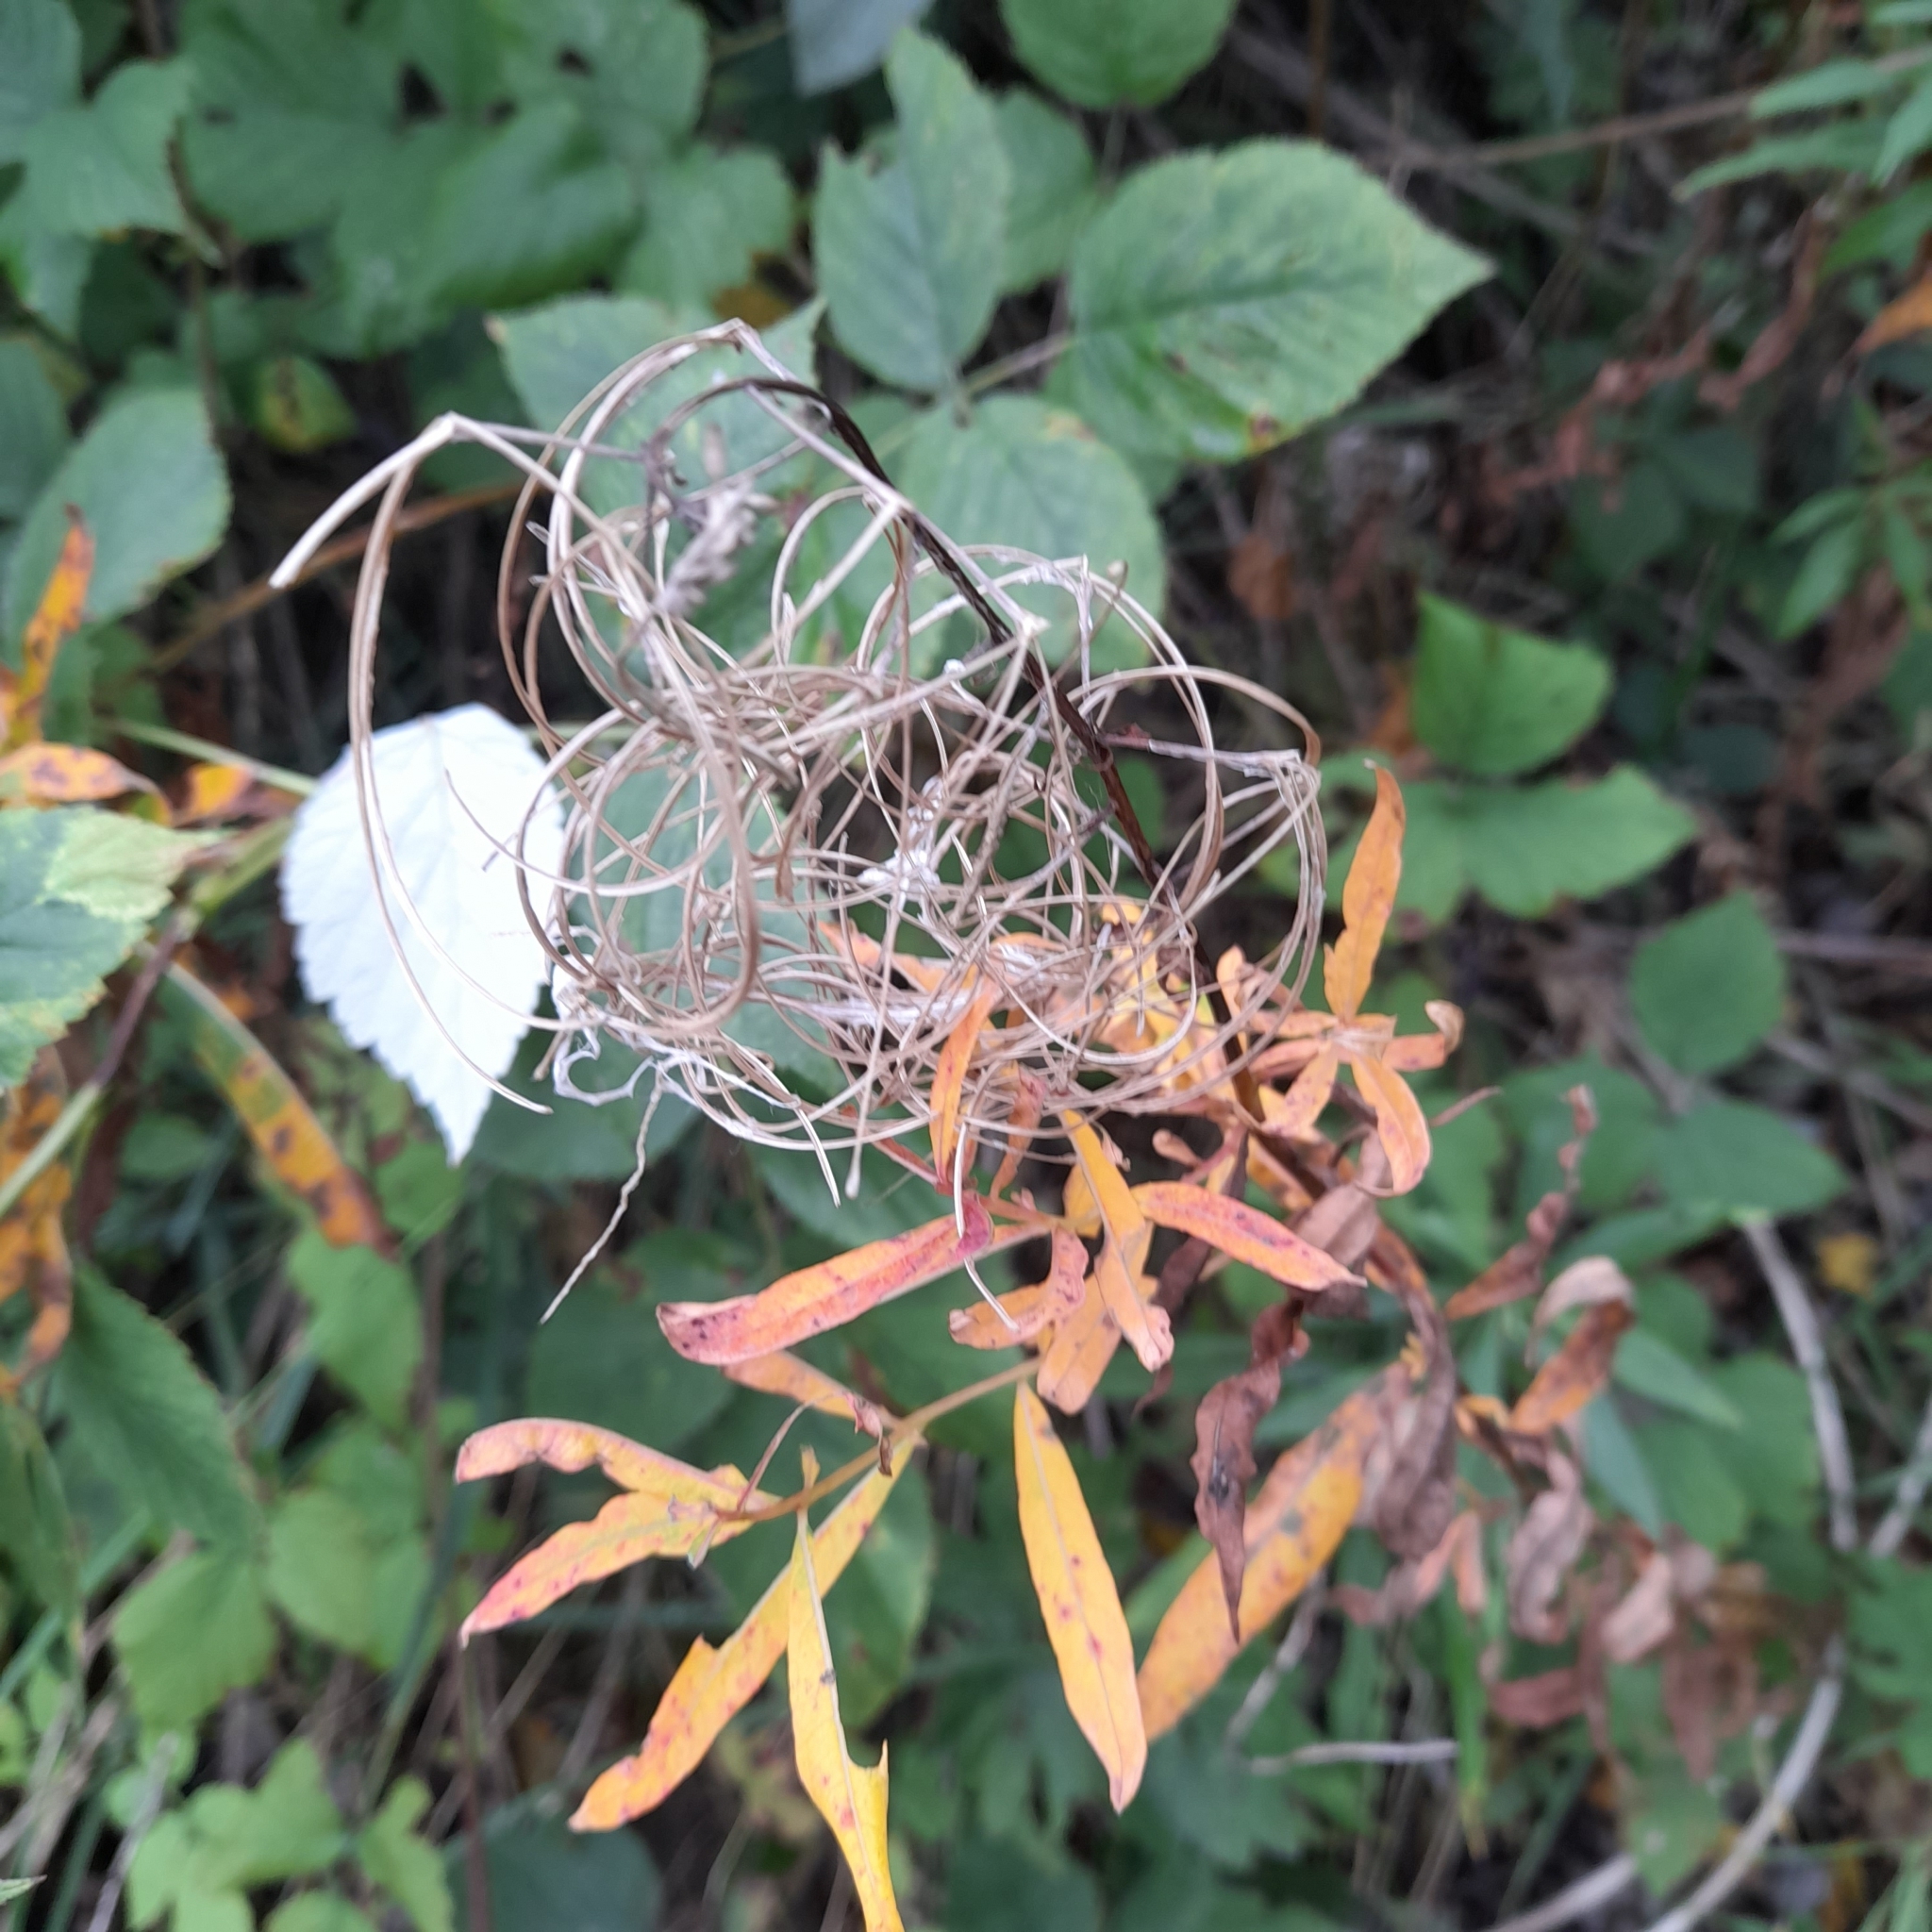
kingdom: Plantae
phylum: Tracheophyta
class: Magnoliopsida
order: Myrtales
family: Onagraceae
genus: Chamaenerion
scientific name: Chamaenerion angustifolium
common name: Fireweed
